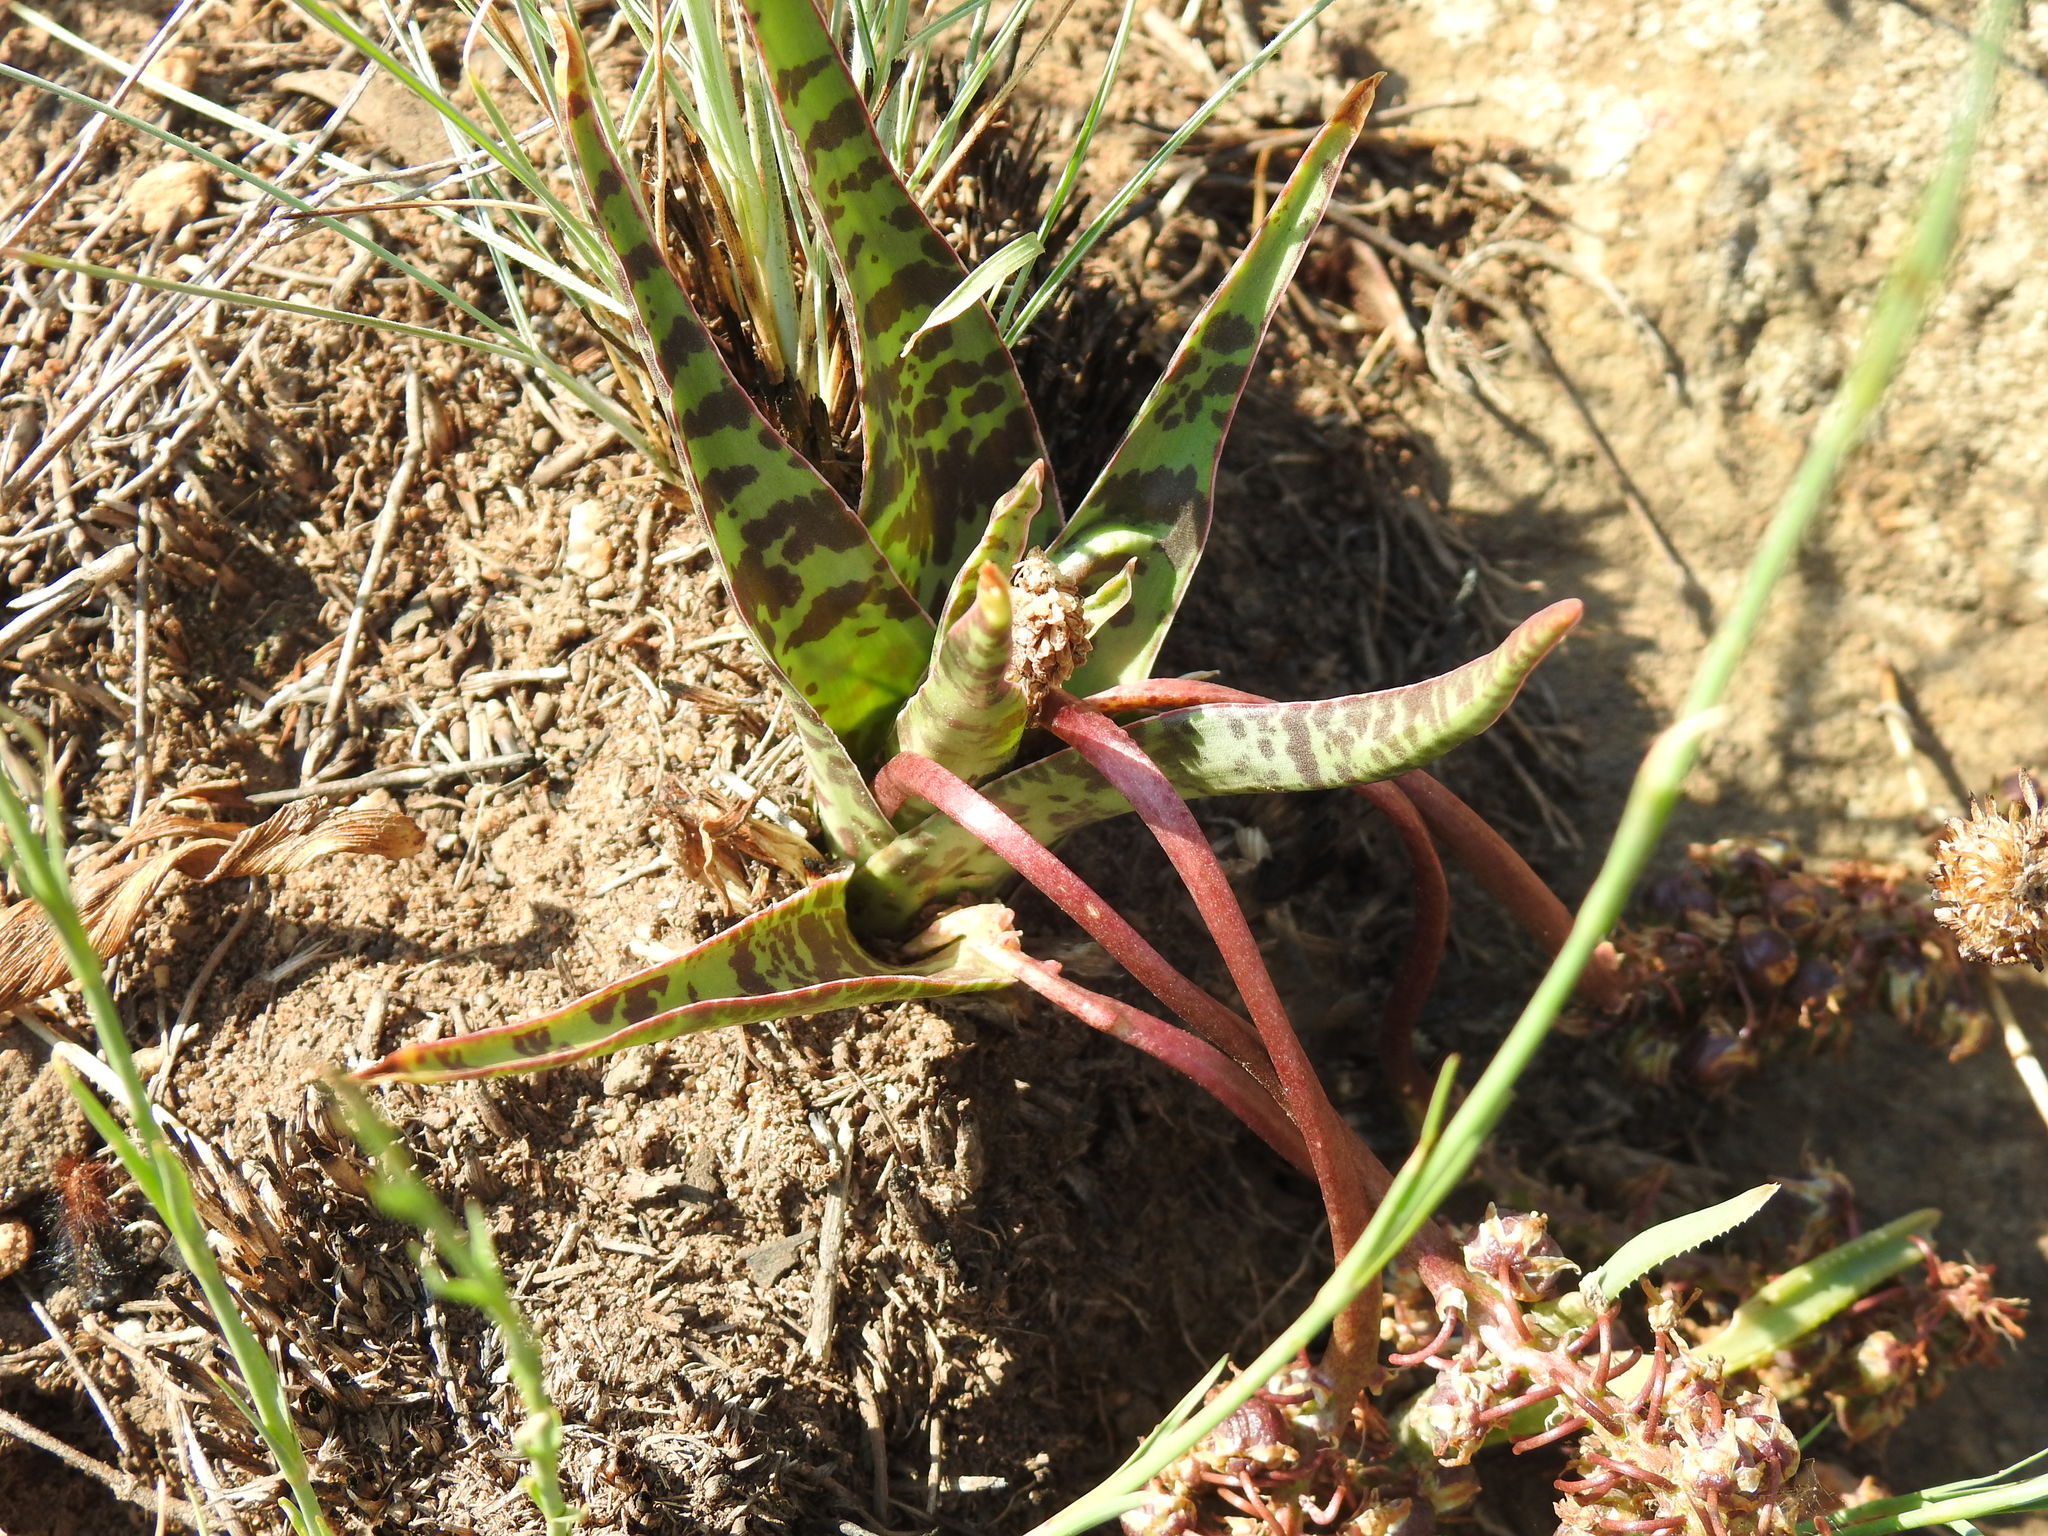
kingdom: Plantae
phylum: Tracheophyta
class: Liliopsida
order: Asparagales
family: Asparagaceae
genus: Ledebouria
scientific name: Ledebouria luteola
